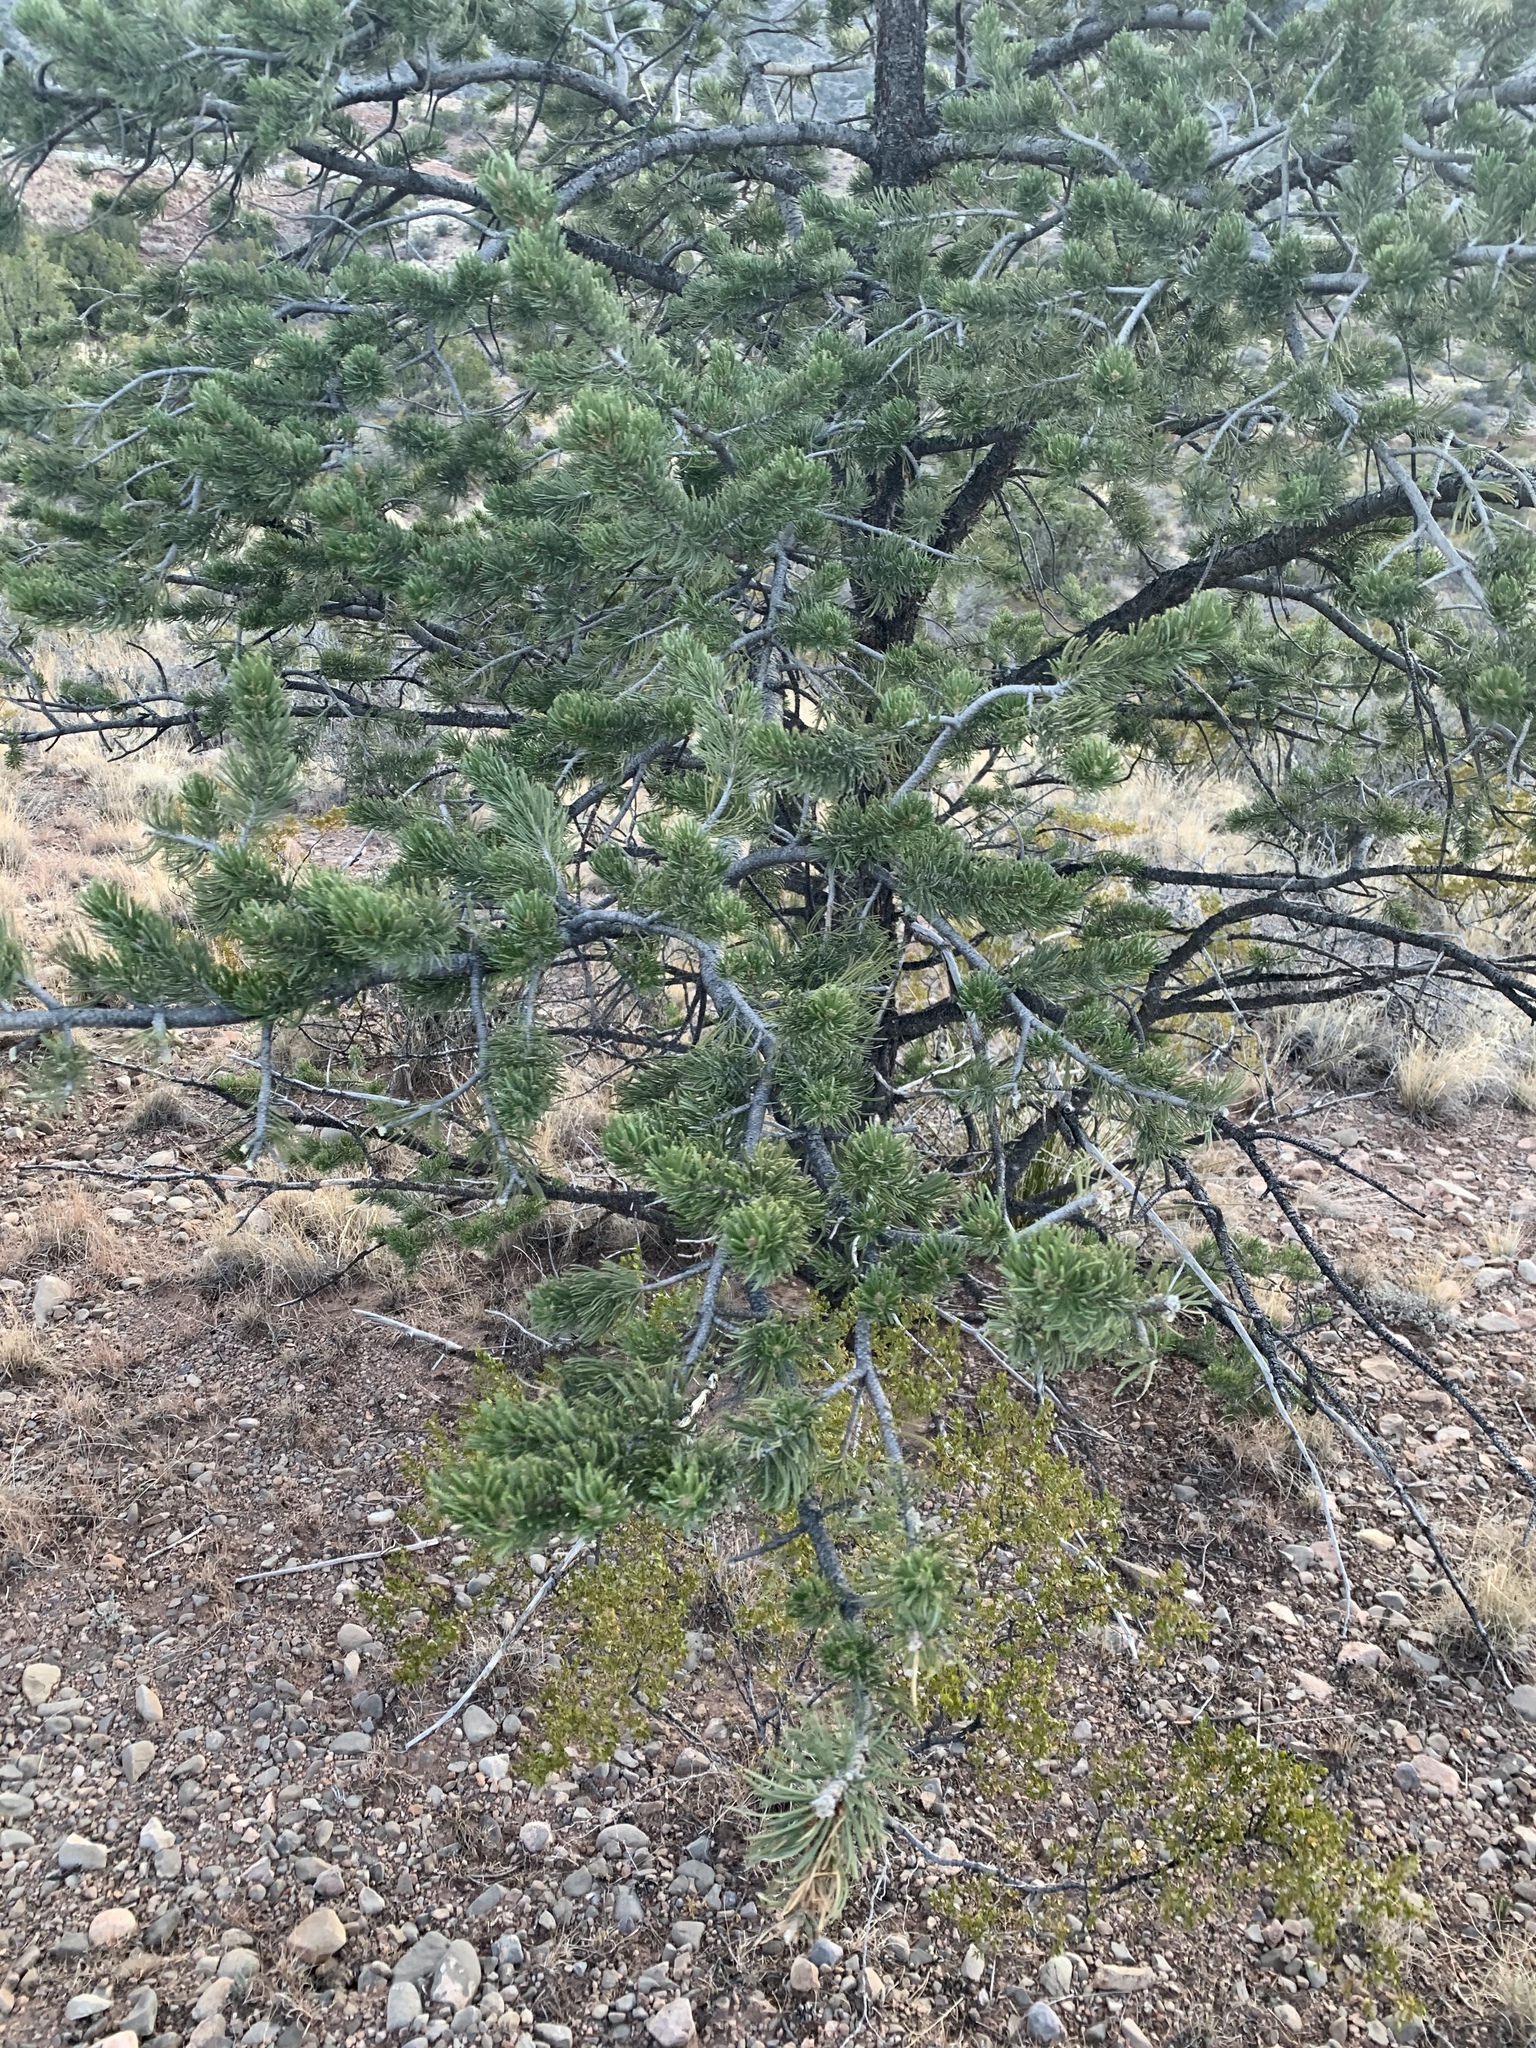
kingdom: Plantae
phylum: Tracheophyta
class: Pinopsida
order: Pinales
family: Pinaceae
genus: Pinus
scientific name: Pinus edulis
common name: Colorado pinyon
